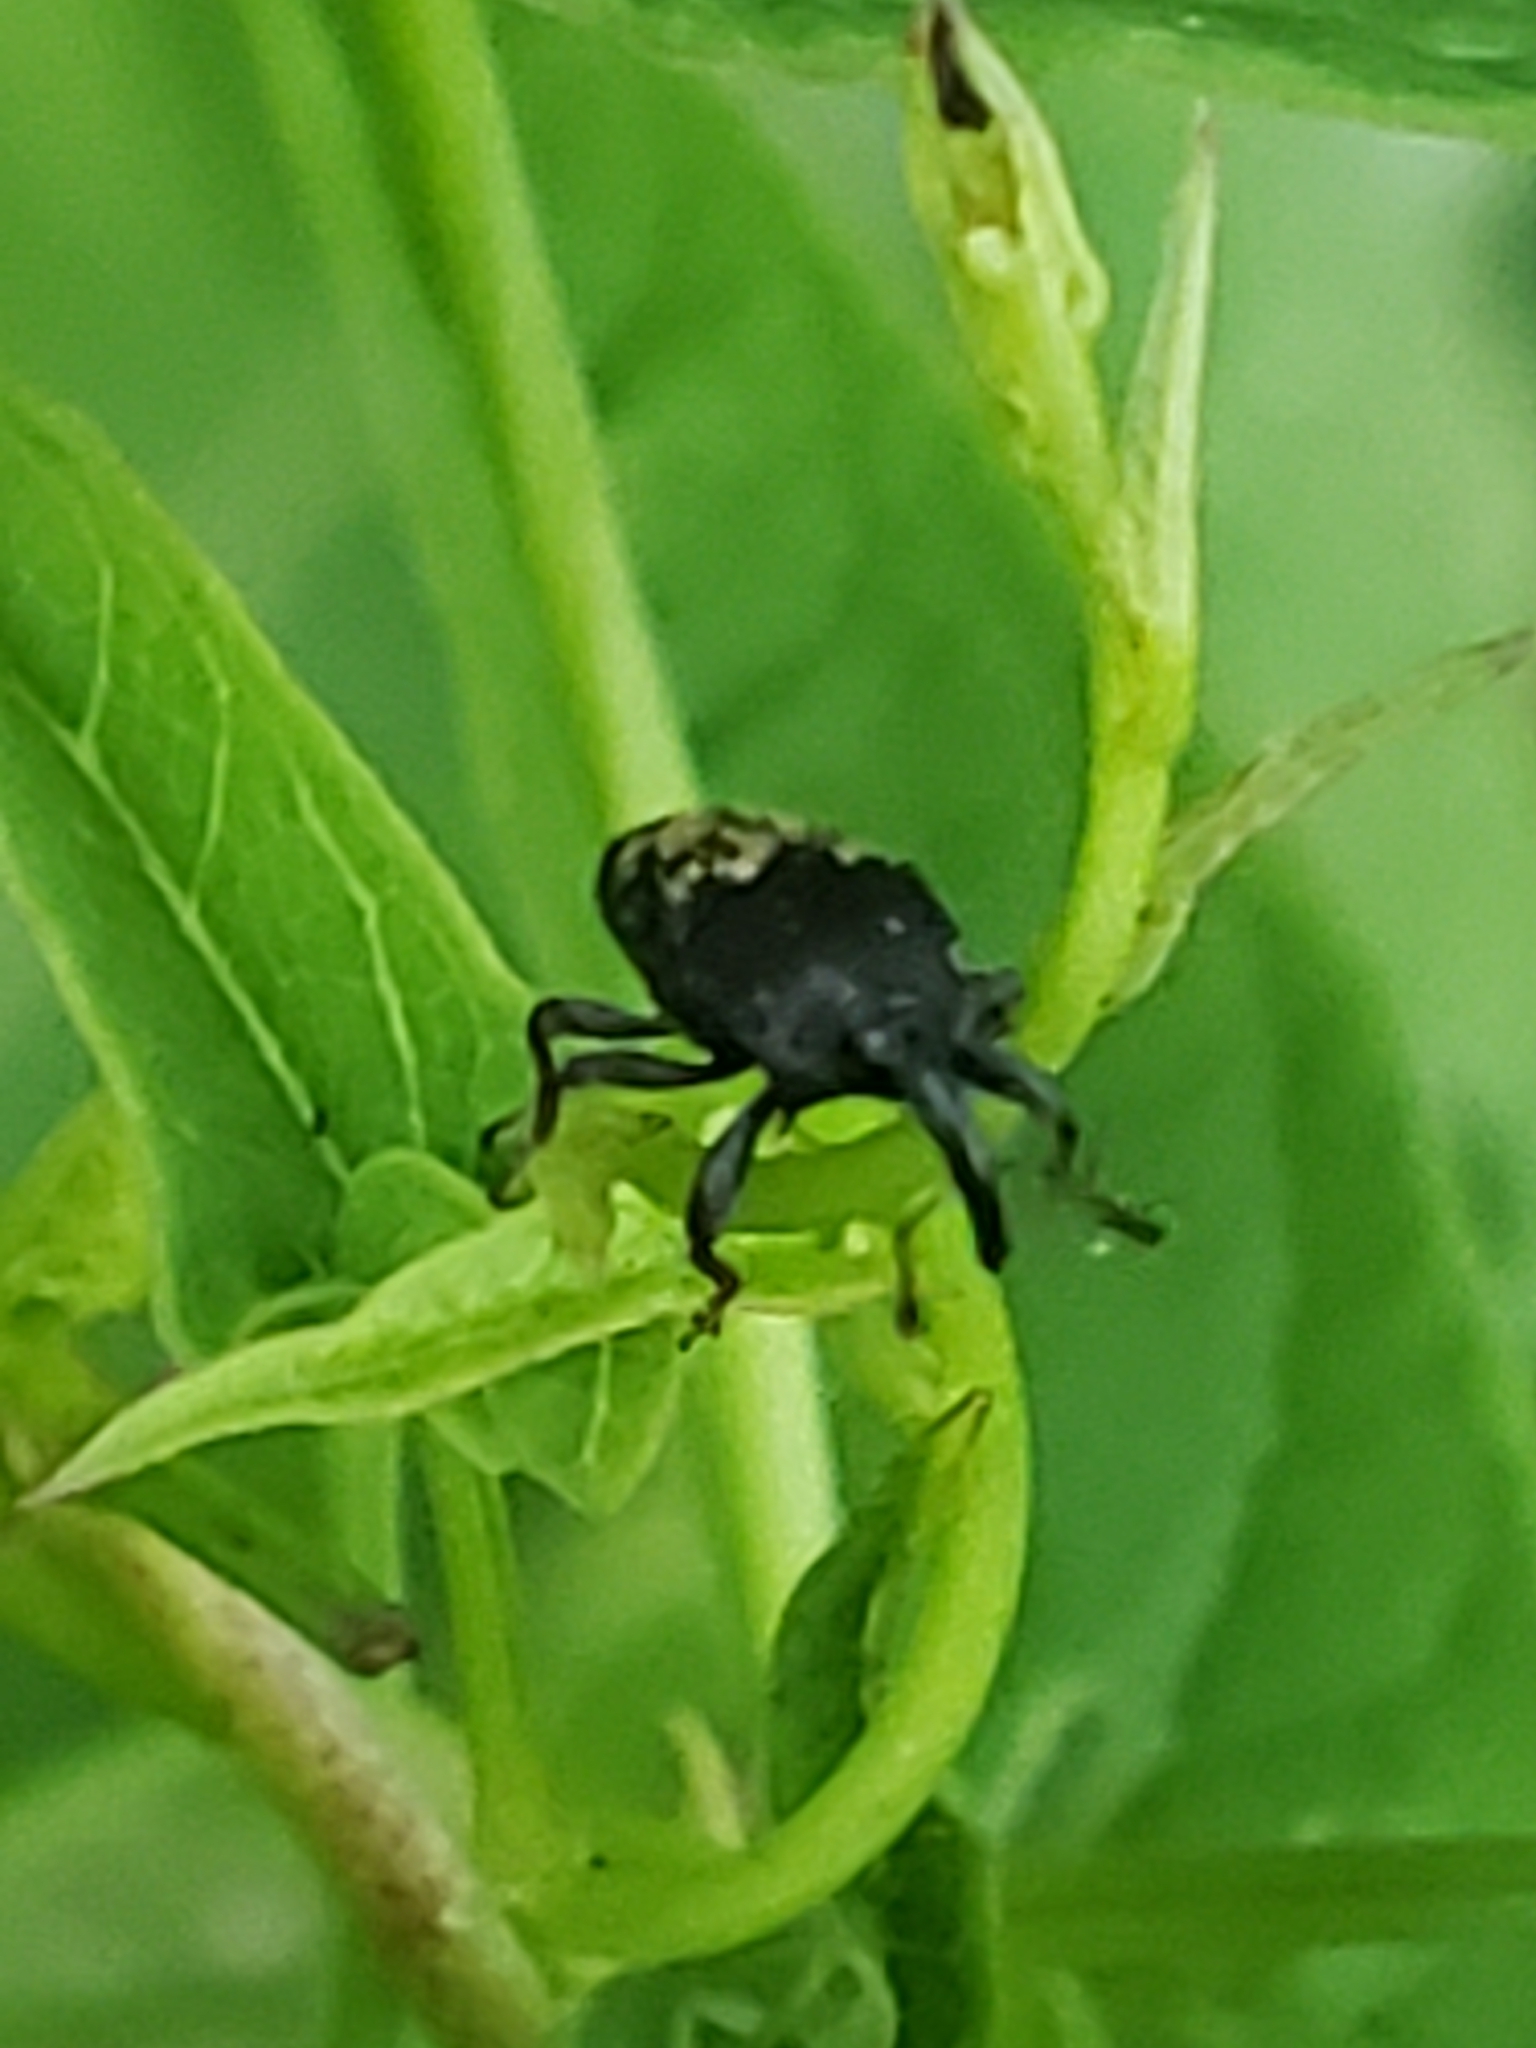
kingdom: Animalia
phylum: Arthropoda
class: Insecta
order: Coleoptera
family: Curculionidae
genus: Glyptobaris
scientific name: Glyptobaris lecontei
